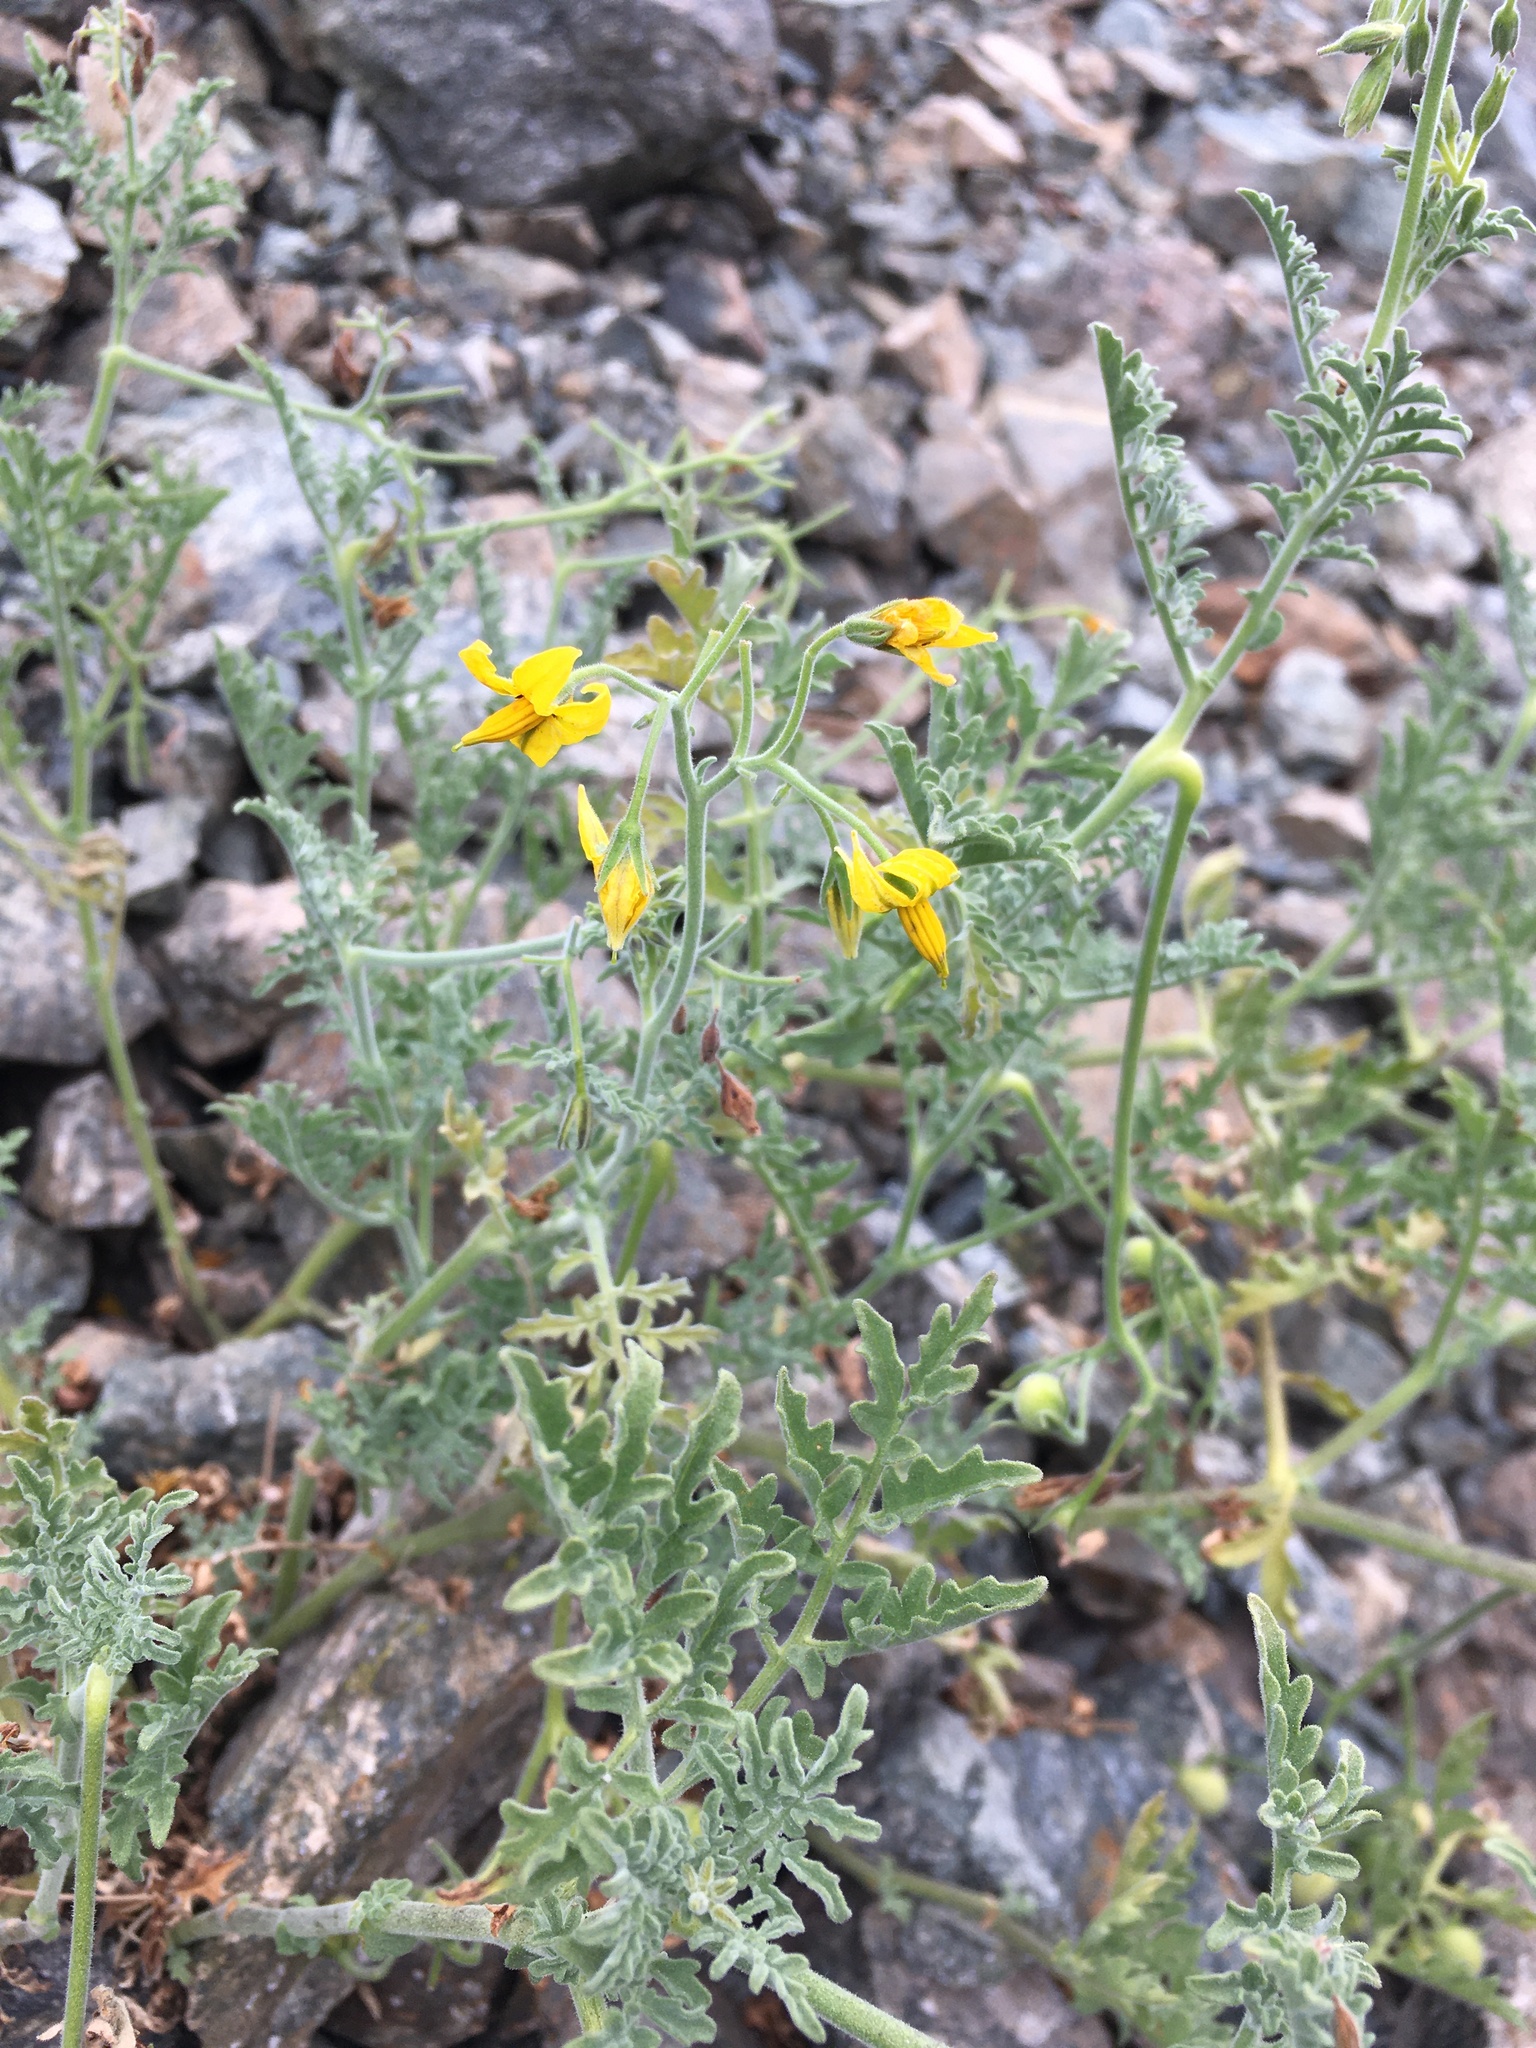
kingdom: Plantae
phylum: Tracheophyta
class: Magnoliopsida
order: Solanales
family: Solanaceae
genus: Solanum
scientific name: Solanum chilense
